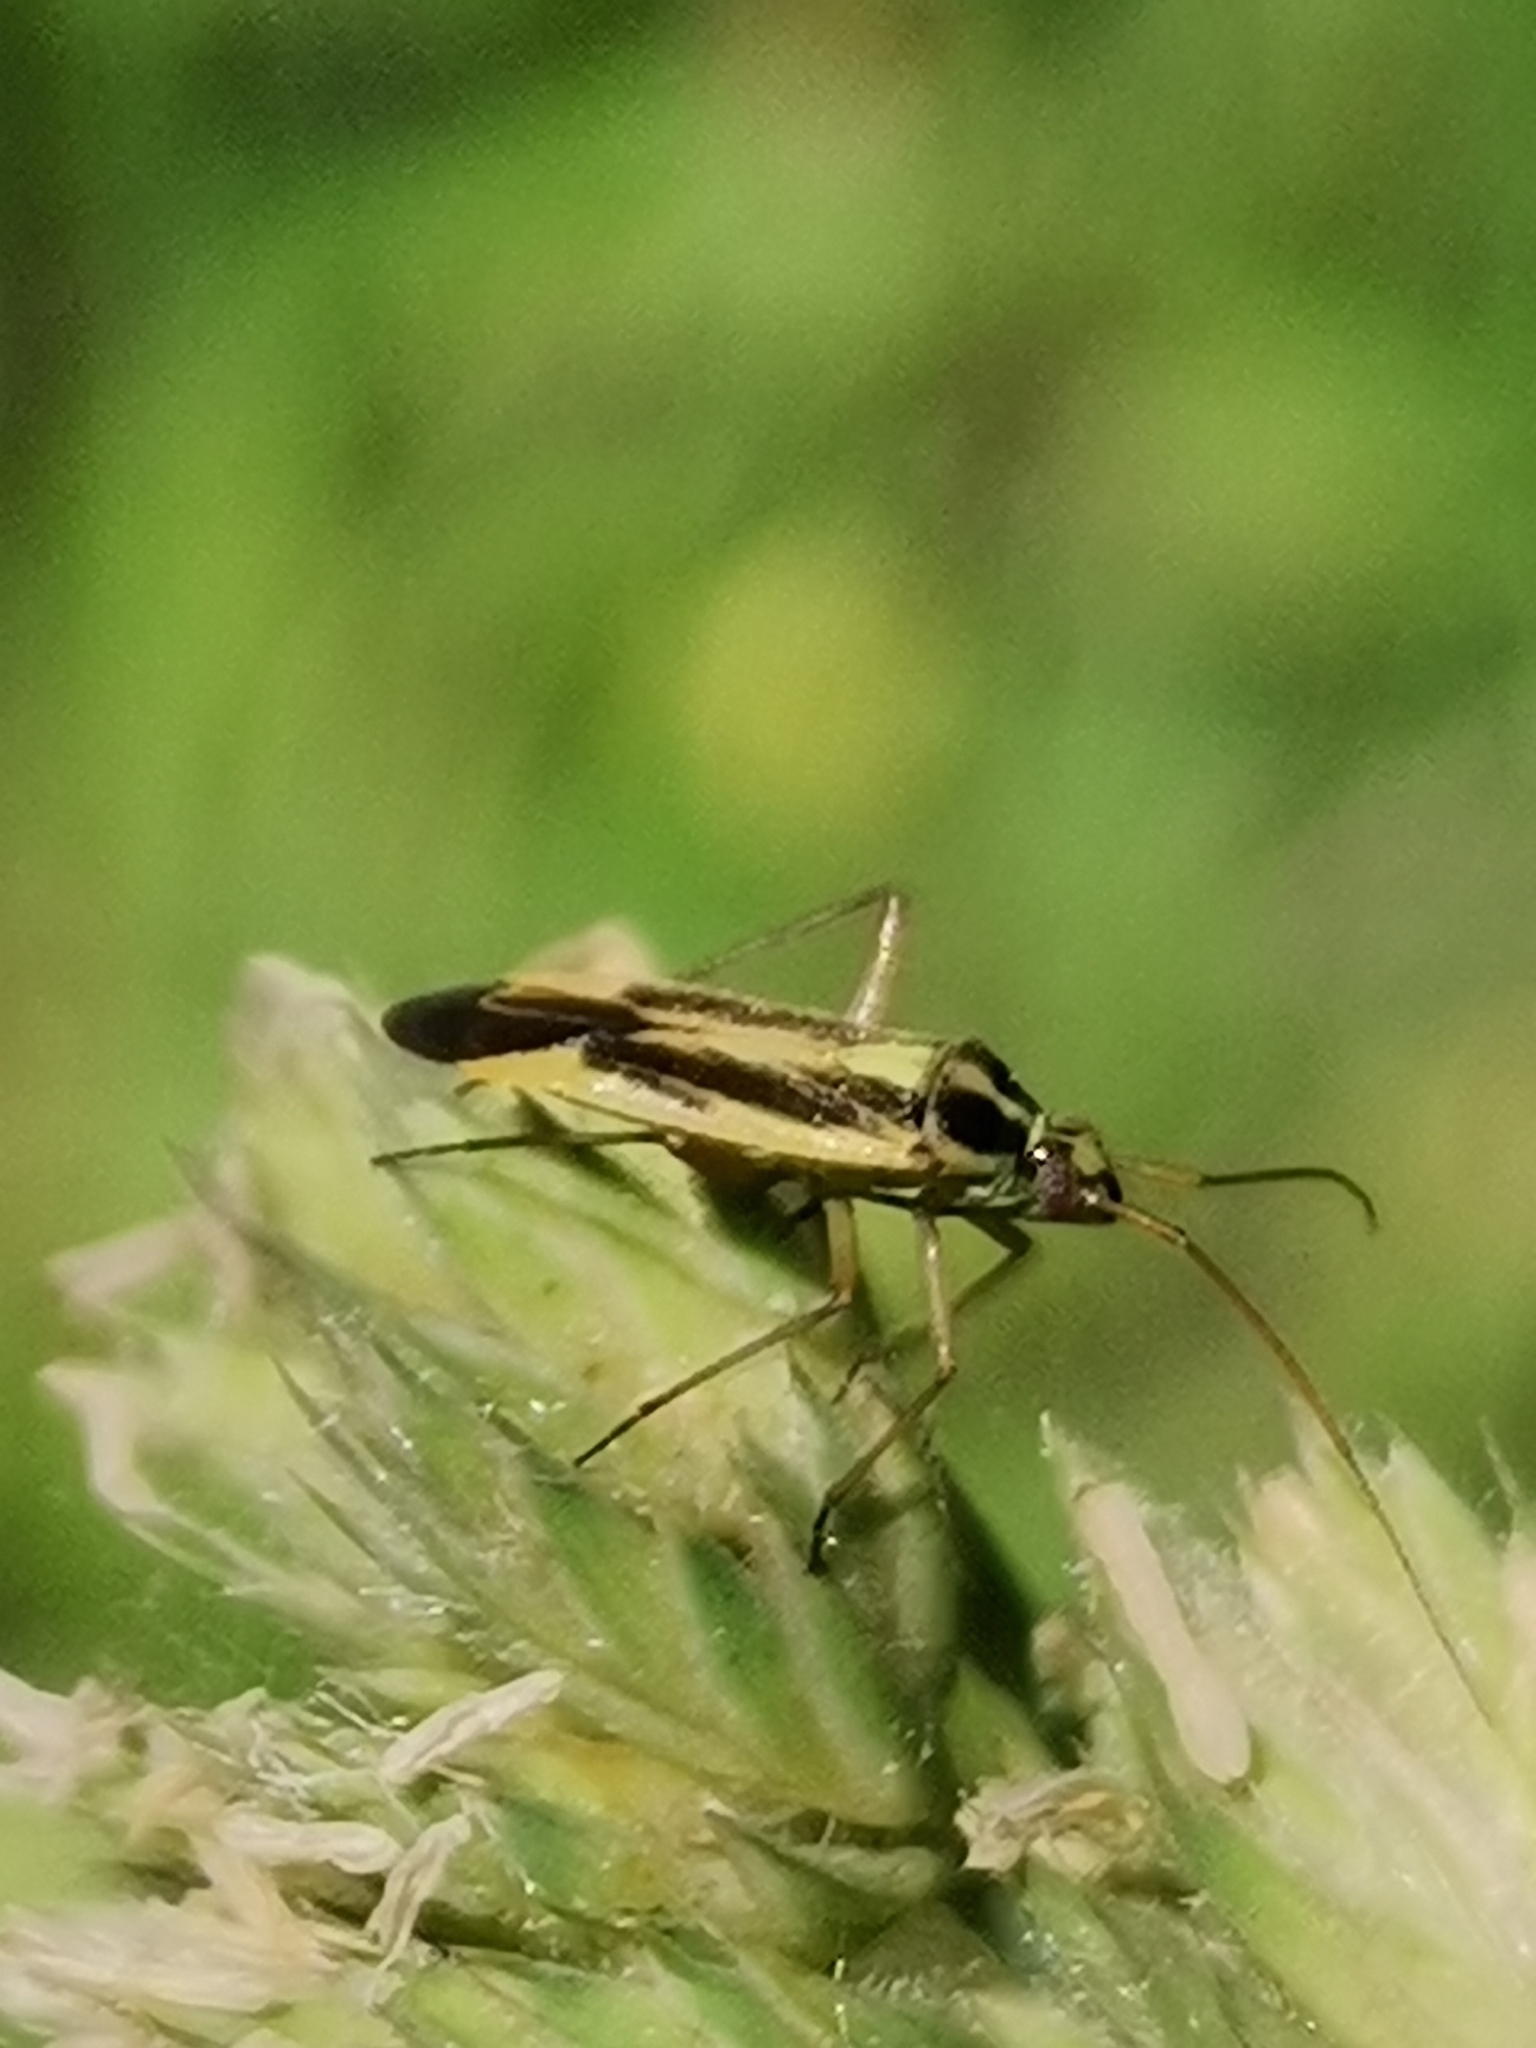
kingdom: Animalia
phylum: Arthropoda
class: Insecta
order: Hemiptera
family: Miridae
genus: Stenotus
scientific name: Stenotus binotatus
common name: Plant bug
